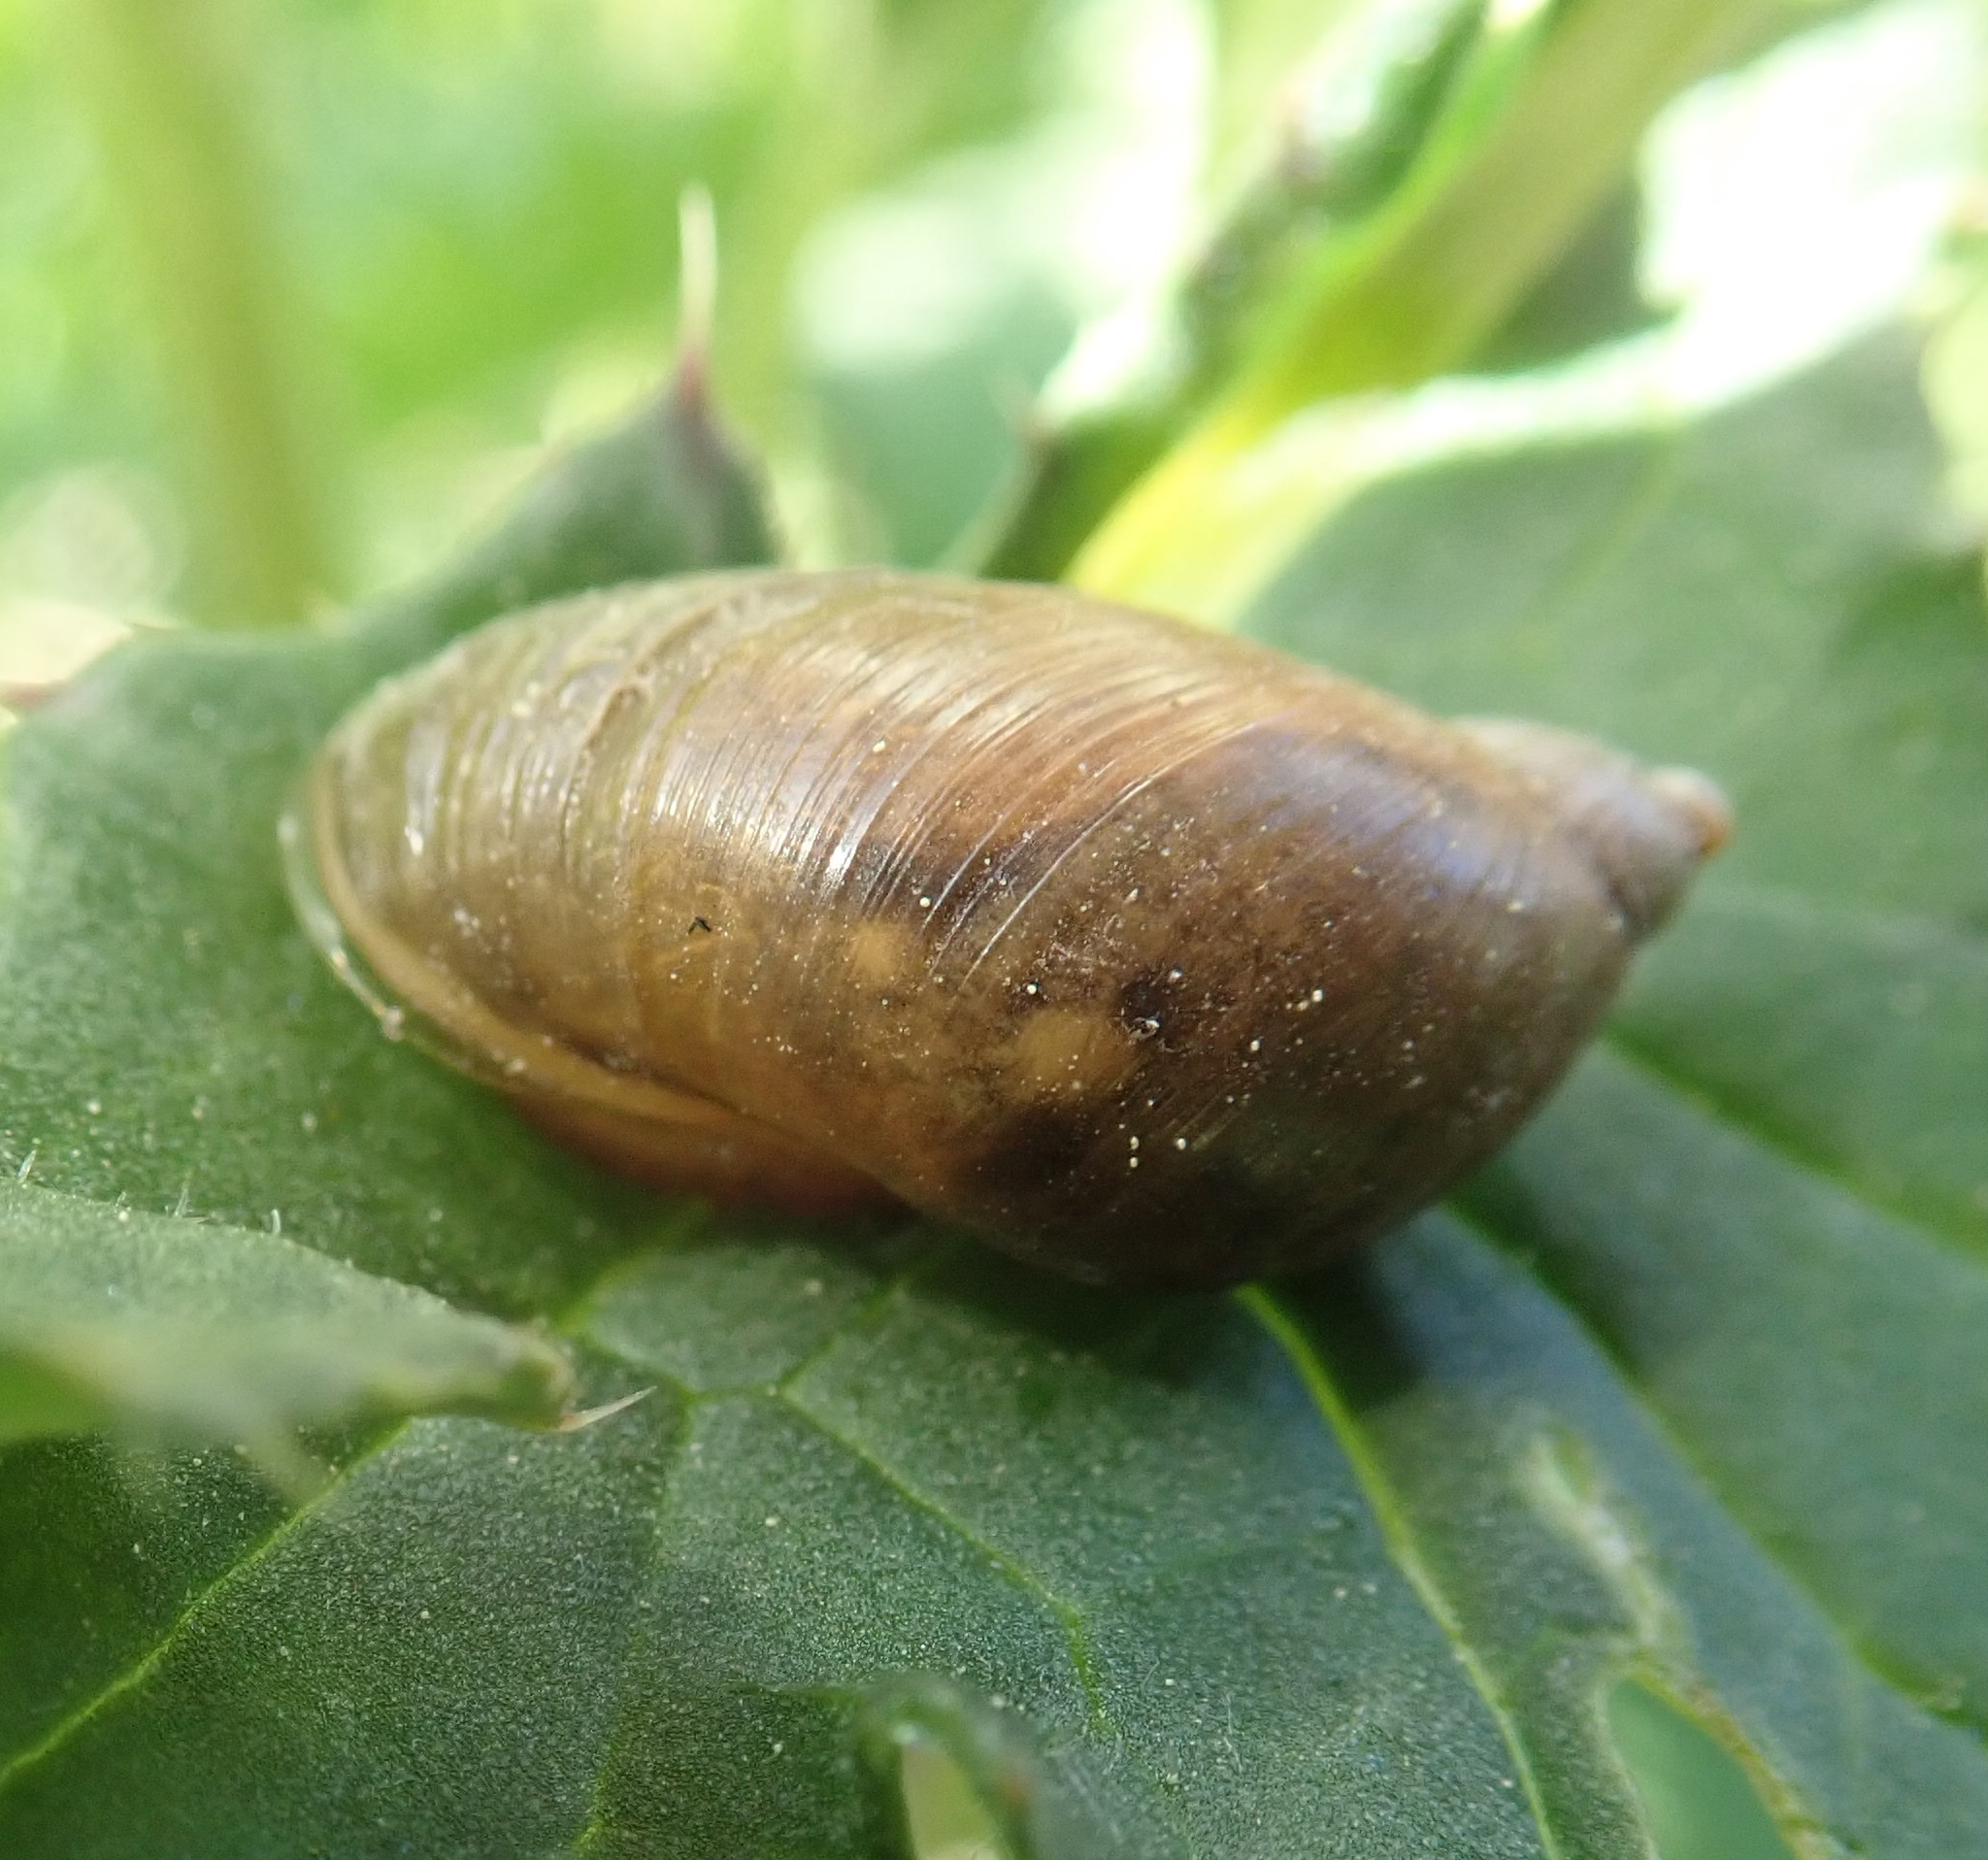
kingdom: Animalia
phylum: Mollusca
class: Gastropoda
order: Stylommatophora
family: Succineidae
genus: Succinea
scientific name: Succinea putris
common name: European ambersnail
